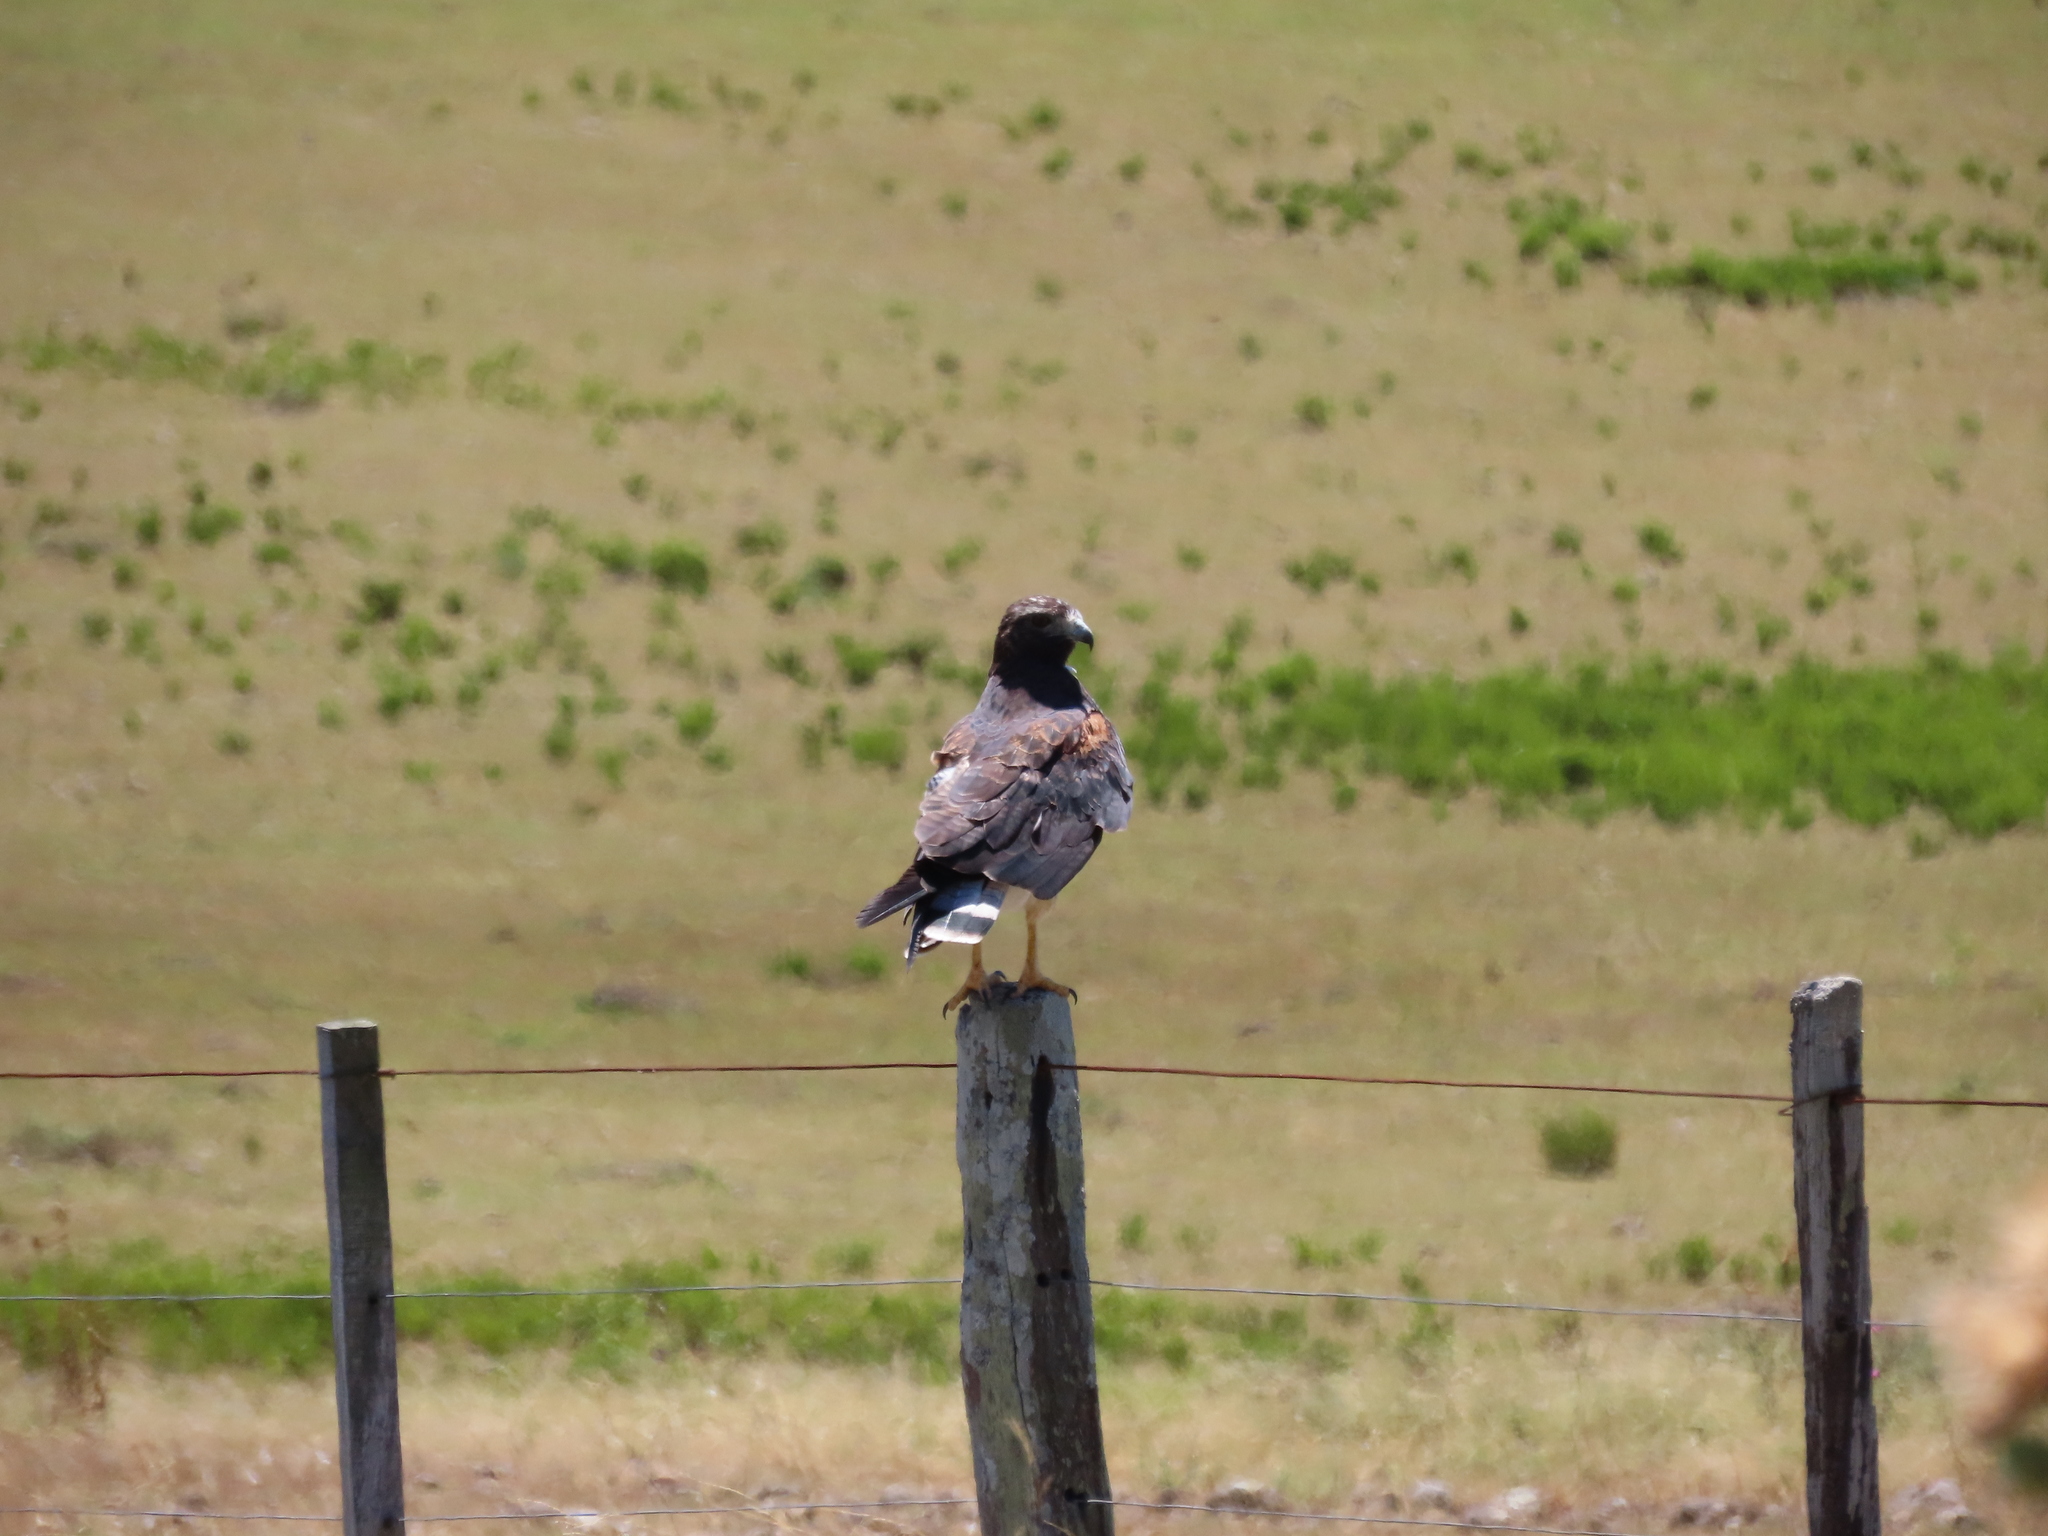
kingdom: Animalia
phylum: Chordata
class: Aves
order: Accipitriformes
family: Accipitridae
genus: Buteo
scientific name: Buteo albicaudatus
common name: White-tailed hawk
